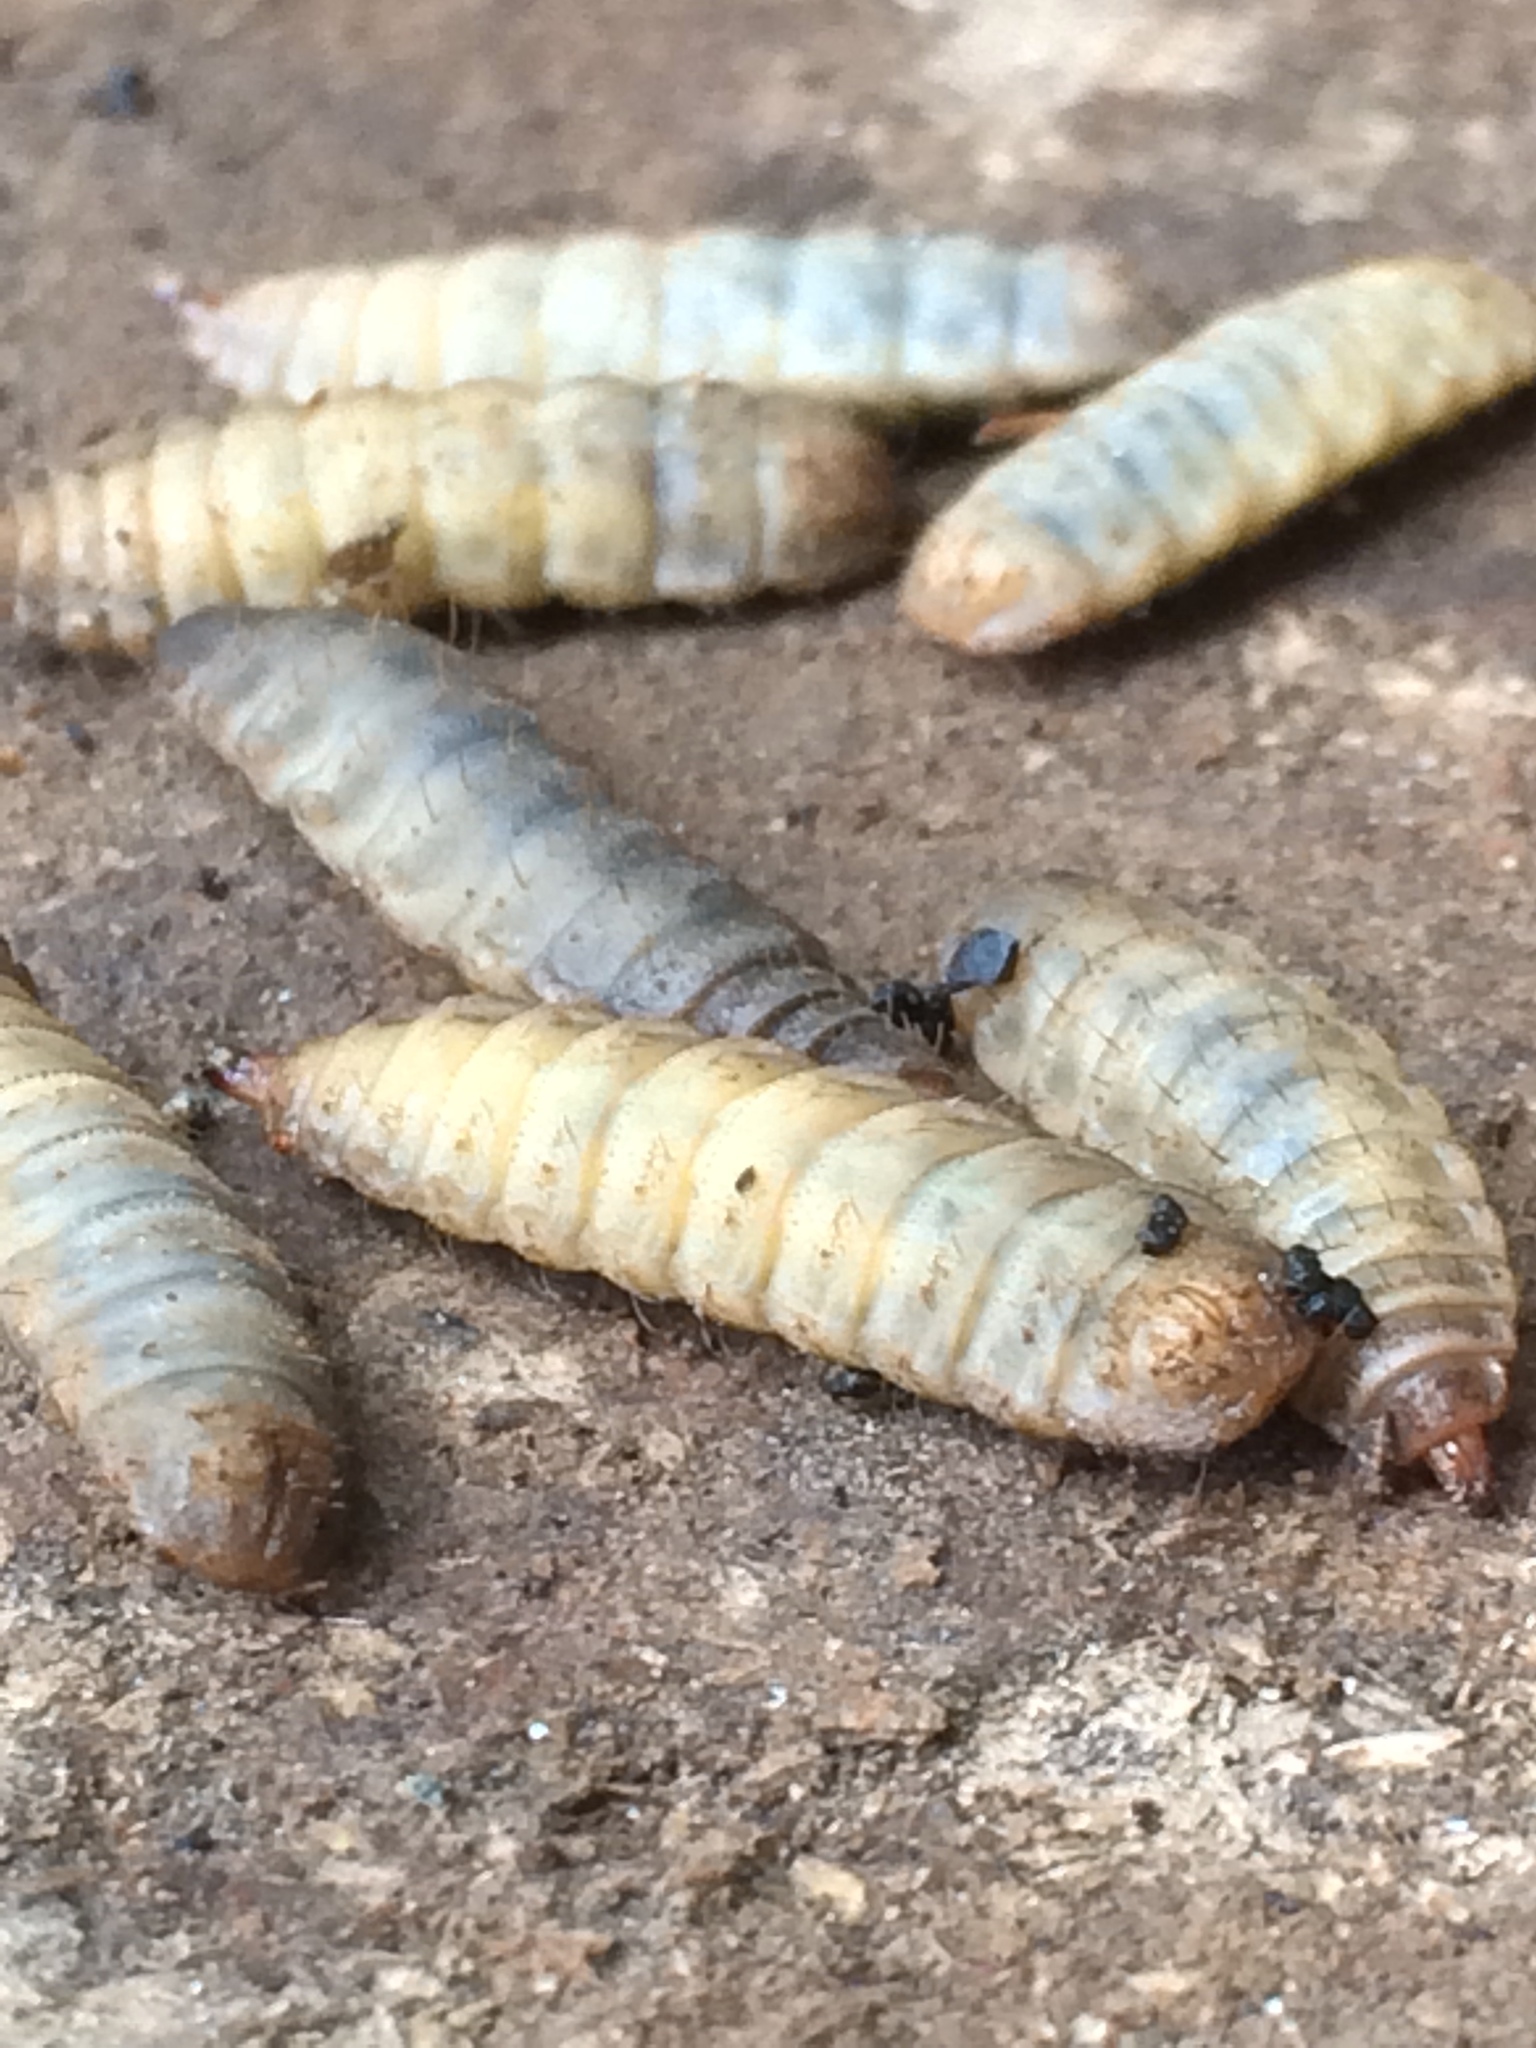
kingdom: Animalia
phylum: Arthropoda
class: Insecta
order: Diptera
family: Stratiomyidae
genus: Hermetia
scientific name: Hermetia illucens
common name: Black soldier fly
